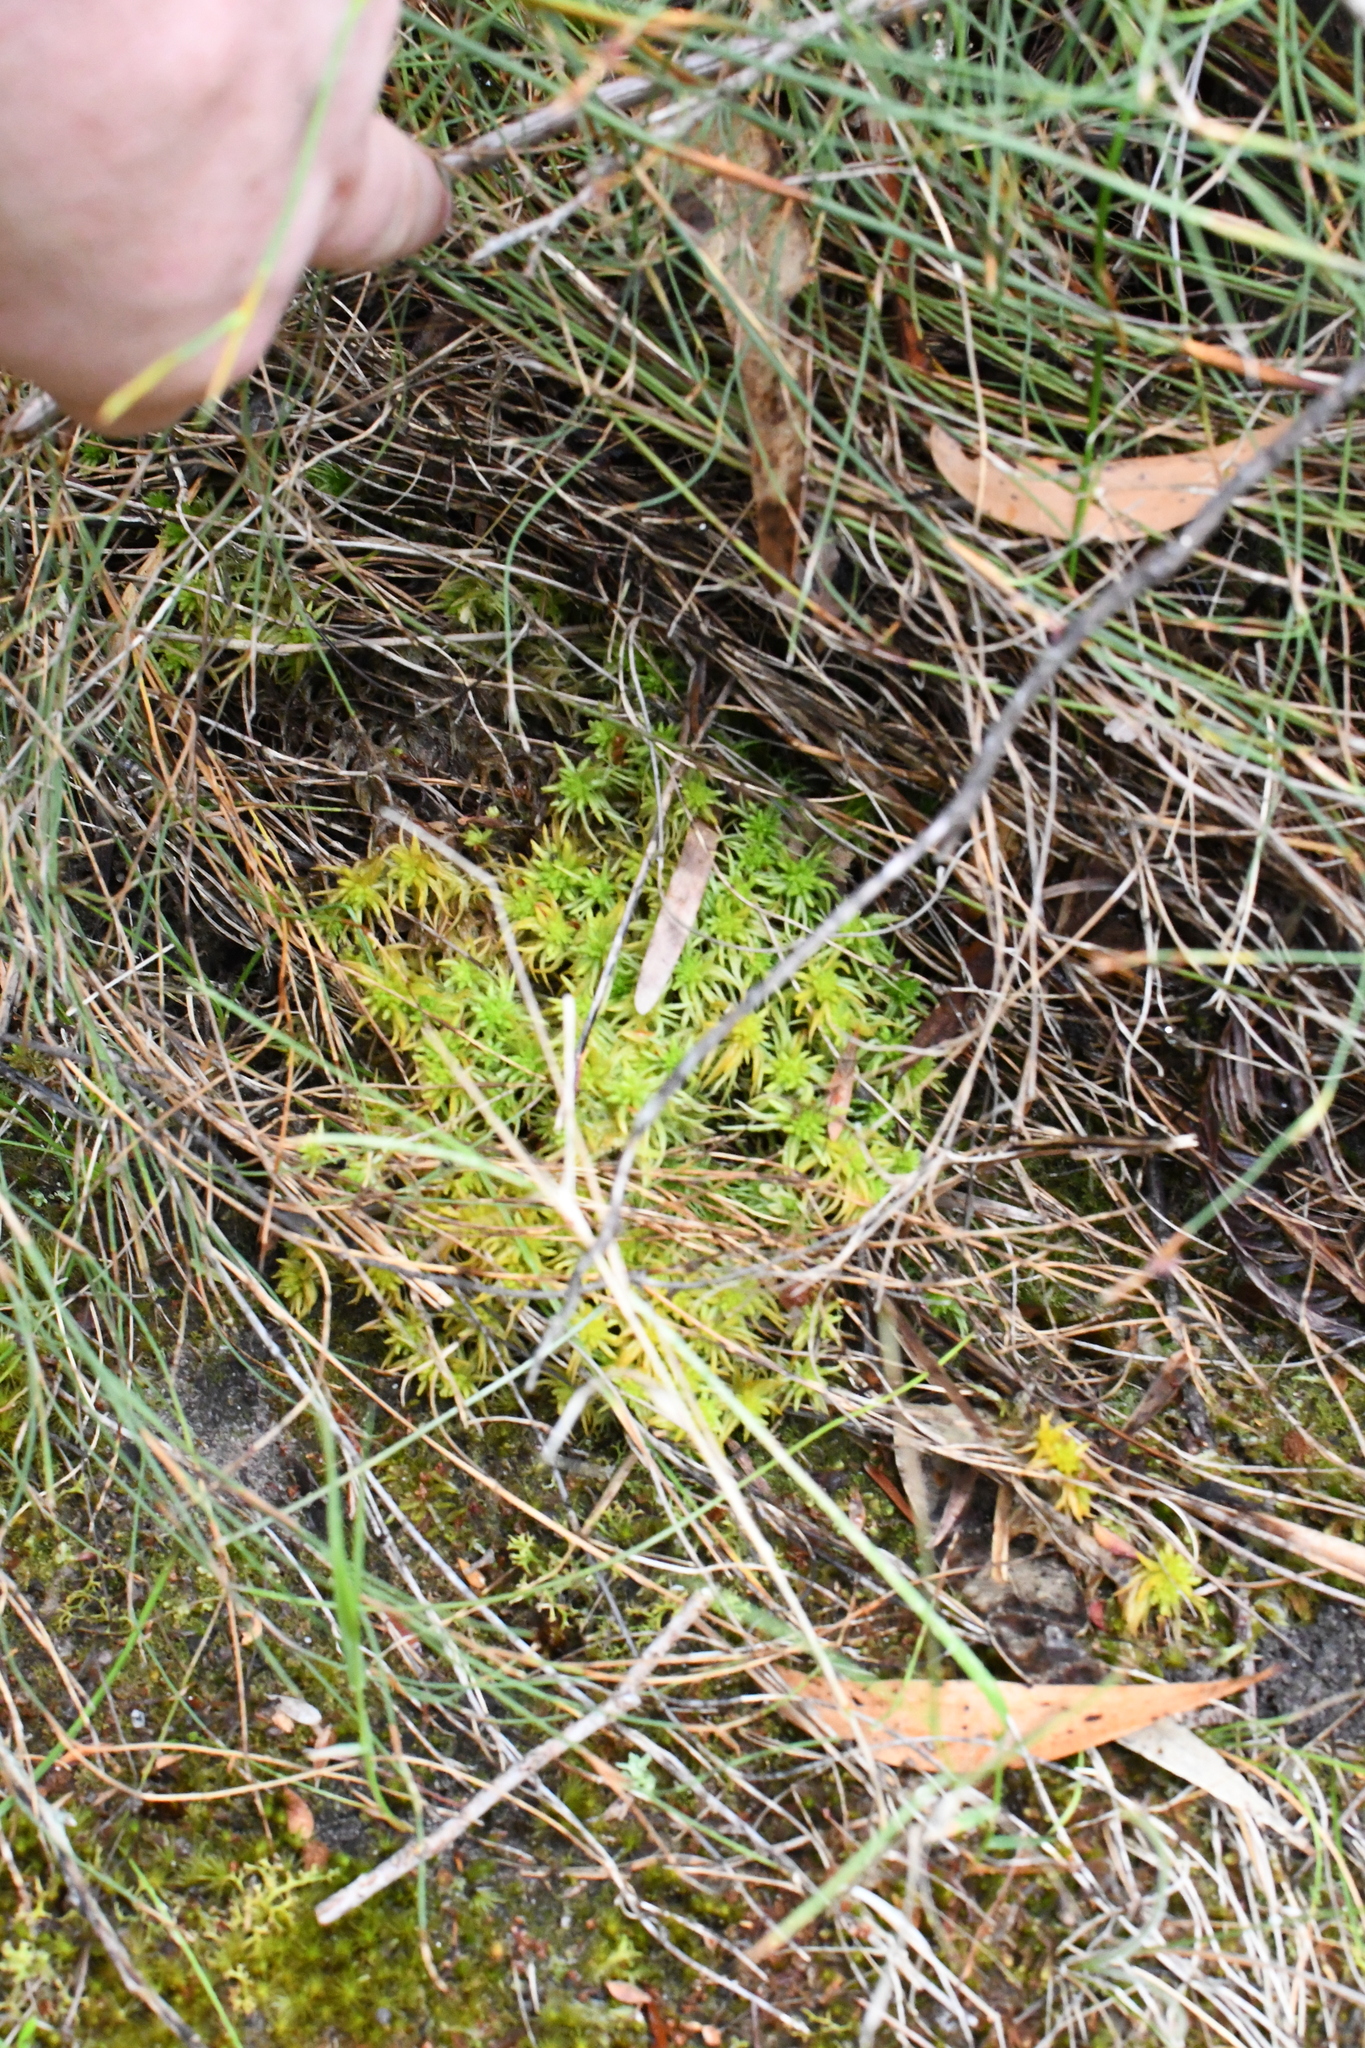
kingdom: Plantae
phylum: Bryophyta
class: Sphagnopsida
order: Sphagnales
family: Sphagnaceae
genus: Sphagnum
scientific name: Sphagnum novozelandicum
